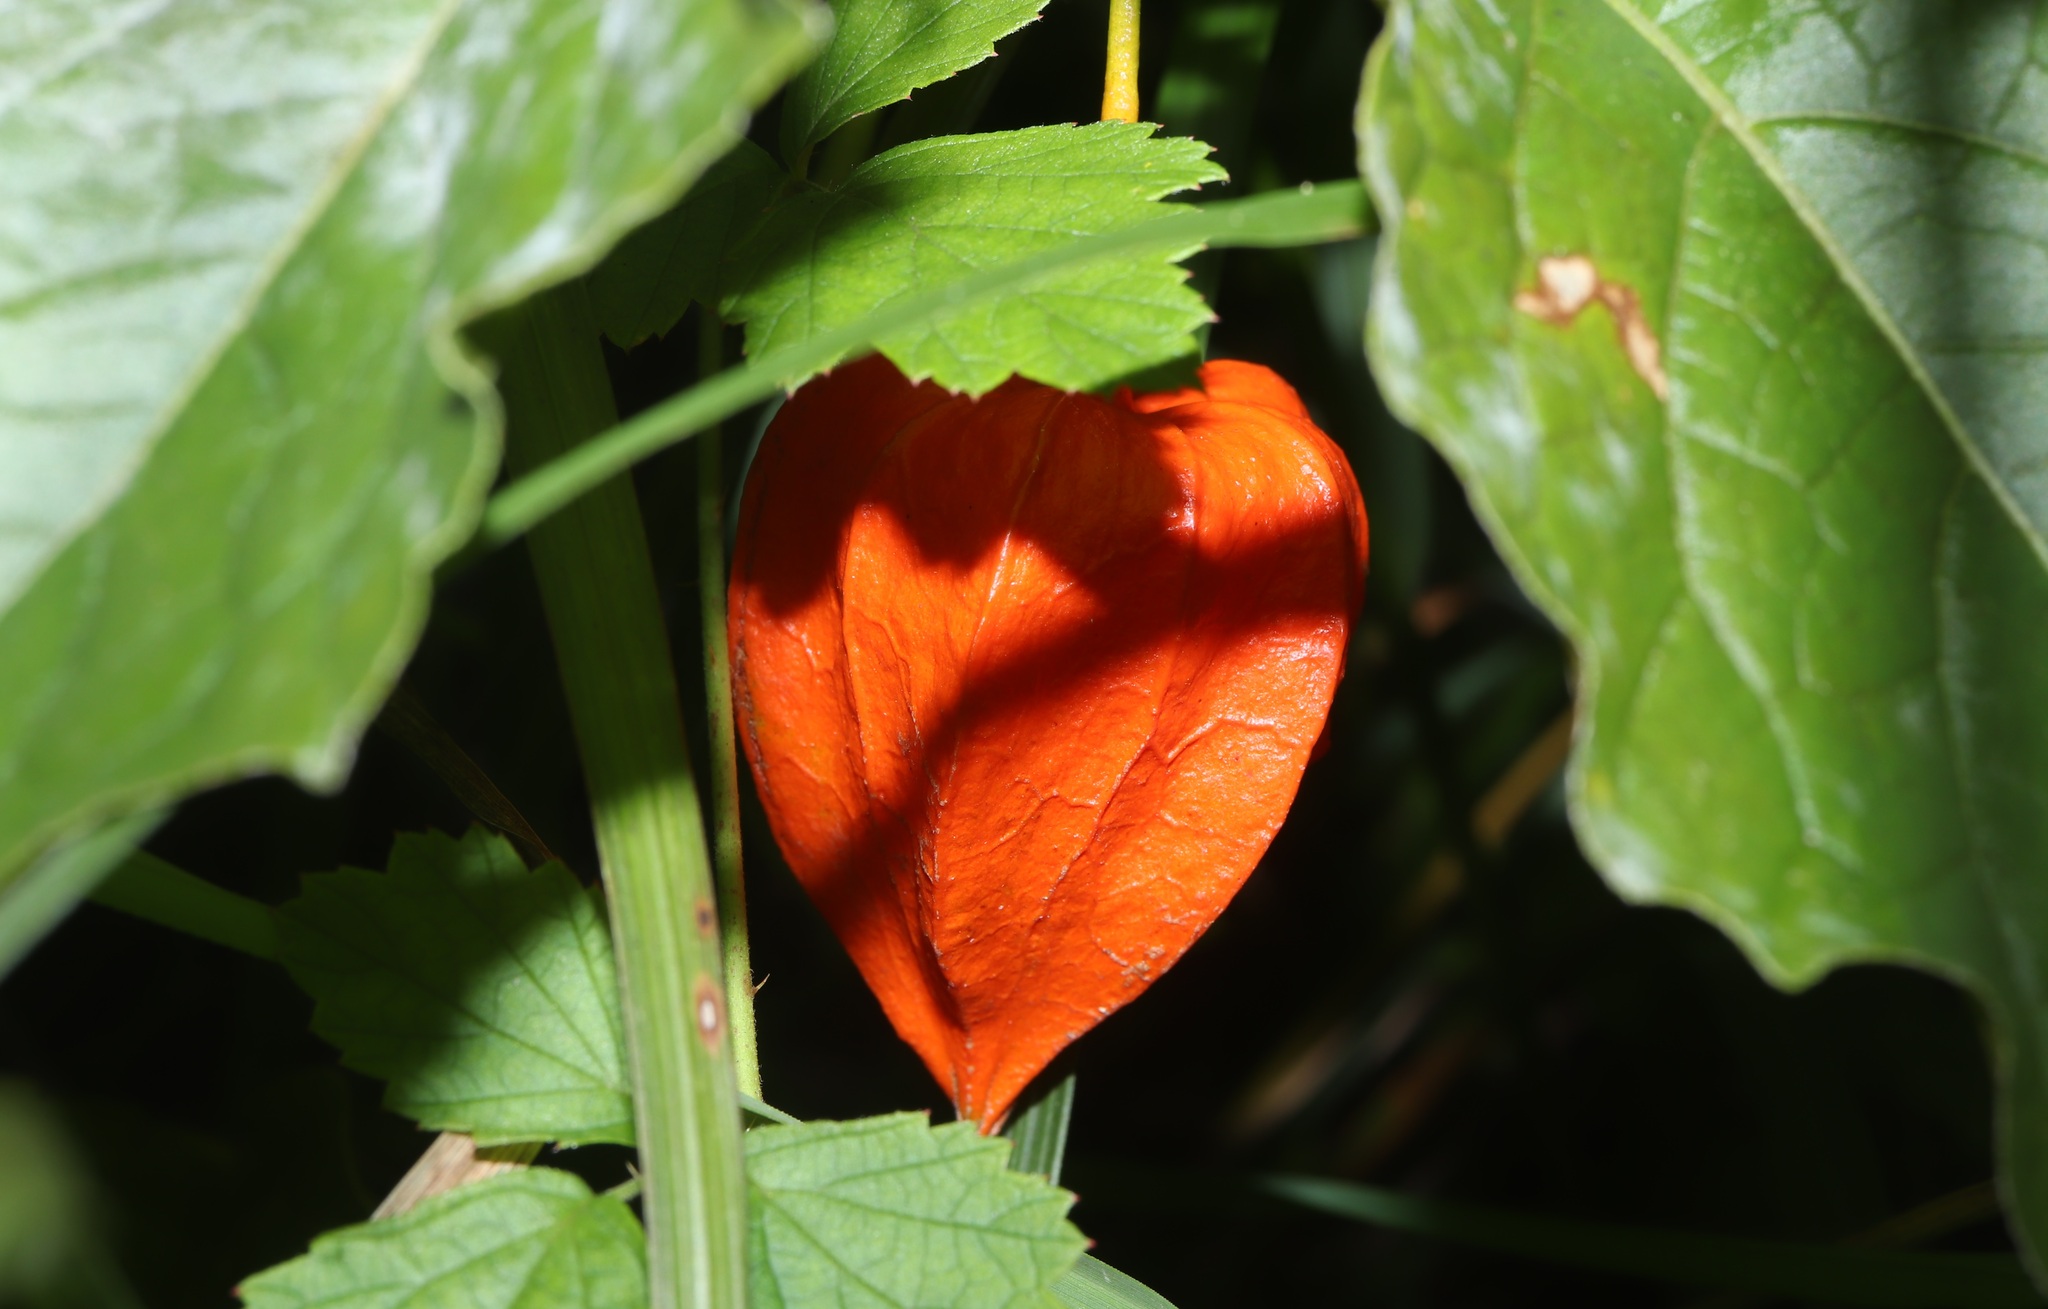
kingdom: Plantae
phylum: Tracheophyta
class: Magnoliopsida
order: Solanales
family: Solanaceae
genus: Alkekengi
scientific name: Alkekengi officinarum
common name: Japanese-lantern
